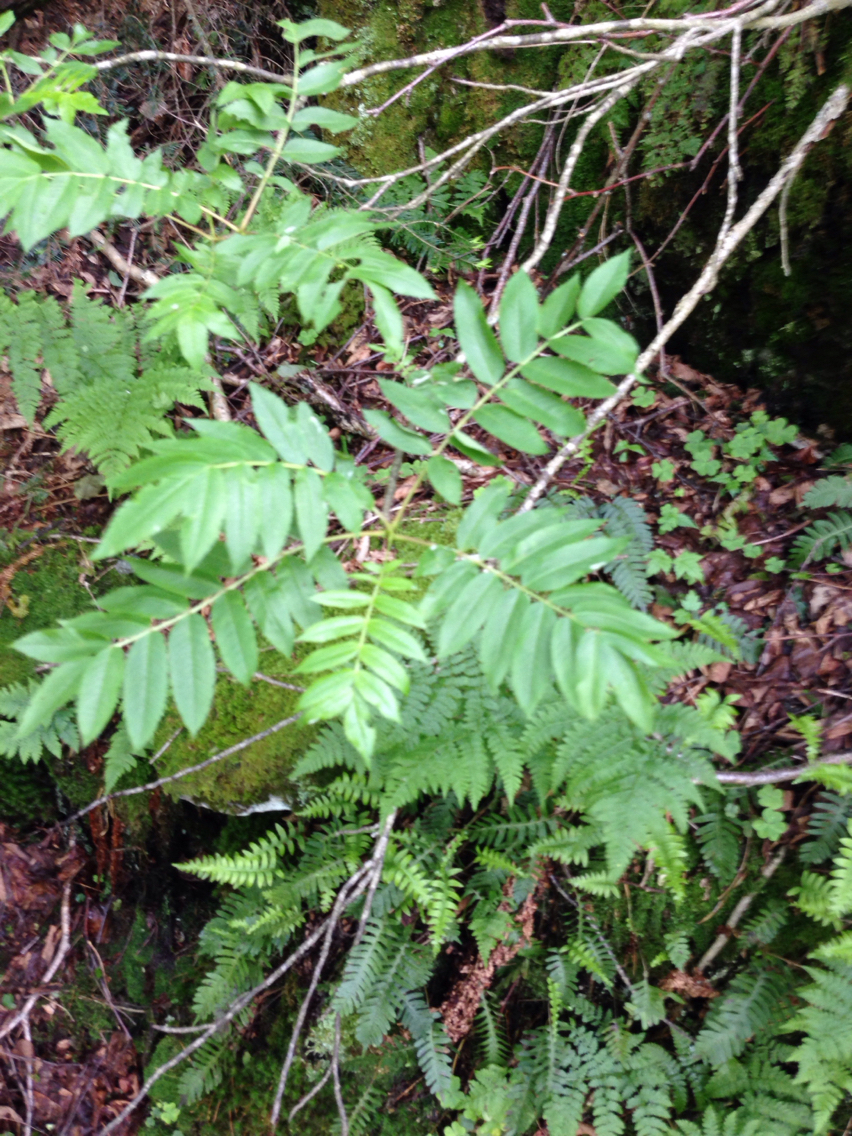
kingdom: Plantae
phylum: Tracheophyta
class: Magnoliopsida
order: Rosales
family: Rosaceae
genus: Sorbus
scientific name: Sorbus americana
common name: American mountain-ash
